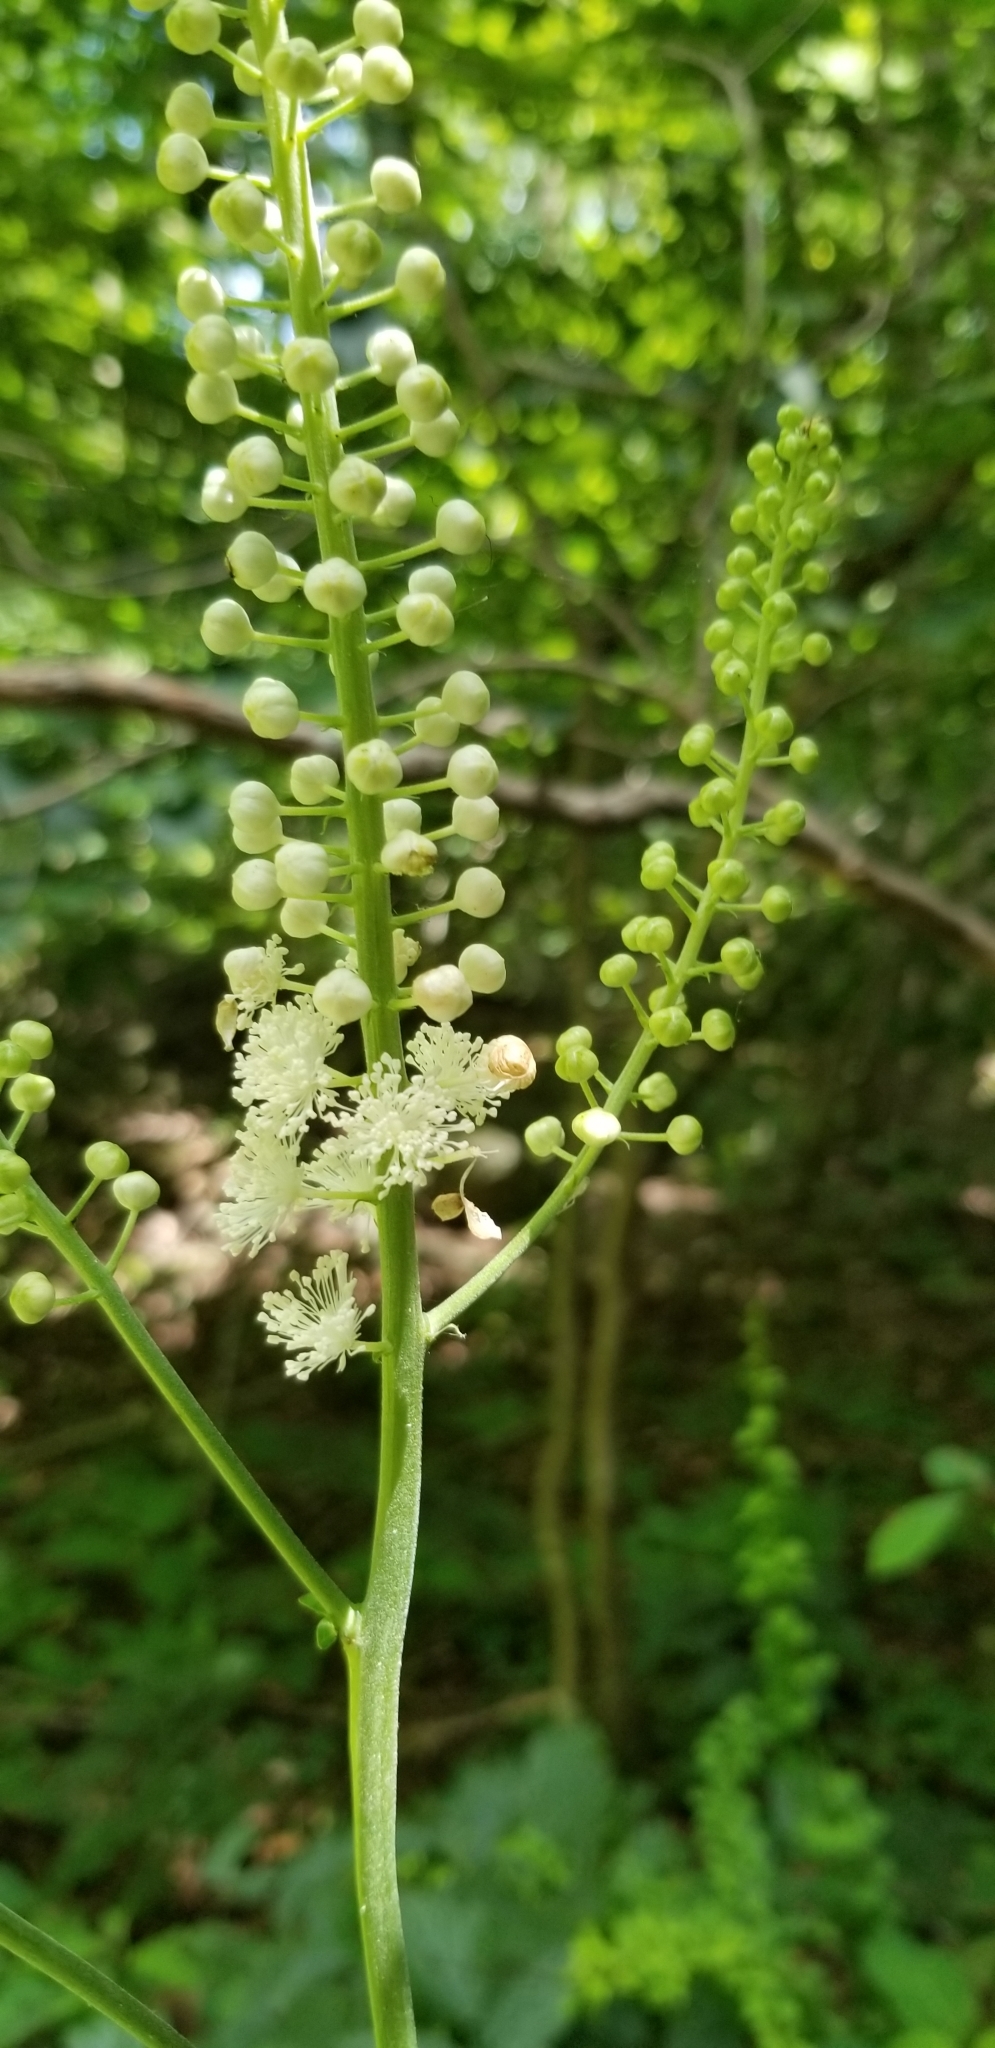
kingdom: Plantae
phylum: Tracheophyta
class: Magnoliopsida
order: Ranunculales
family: Ranunculaceae
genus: Actaea
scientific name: Actaea racemosa
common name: Black cohosh
